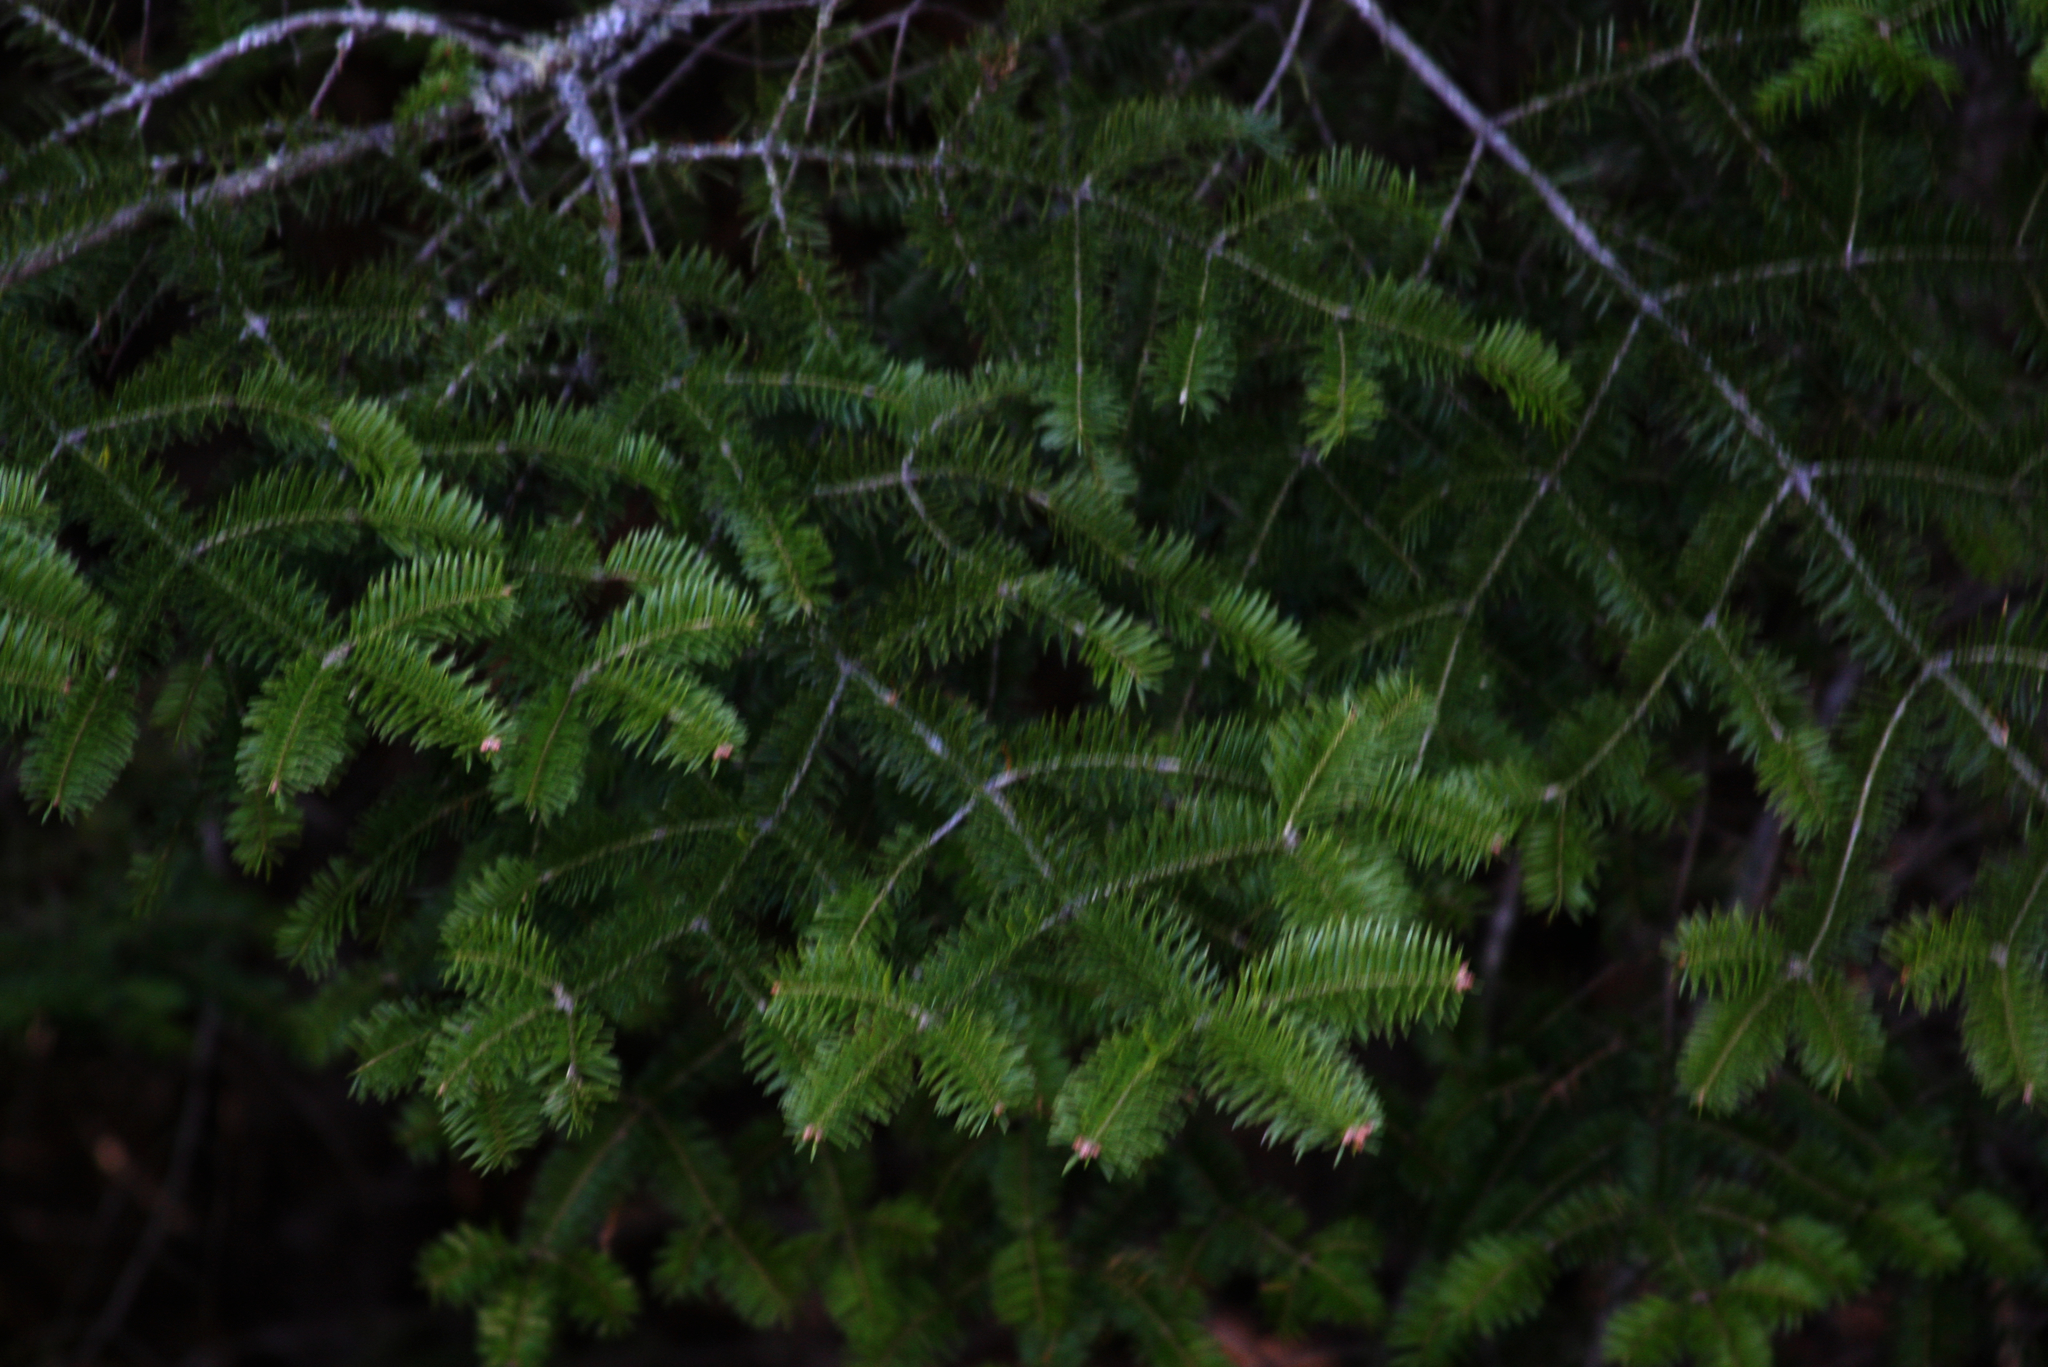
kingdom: Plantae
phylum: Tracheophyta
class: Pinopsida
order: Pinales
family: Pinaceae
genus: Abies
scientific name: Abies balsamea
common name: Balsam fir
